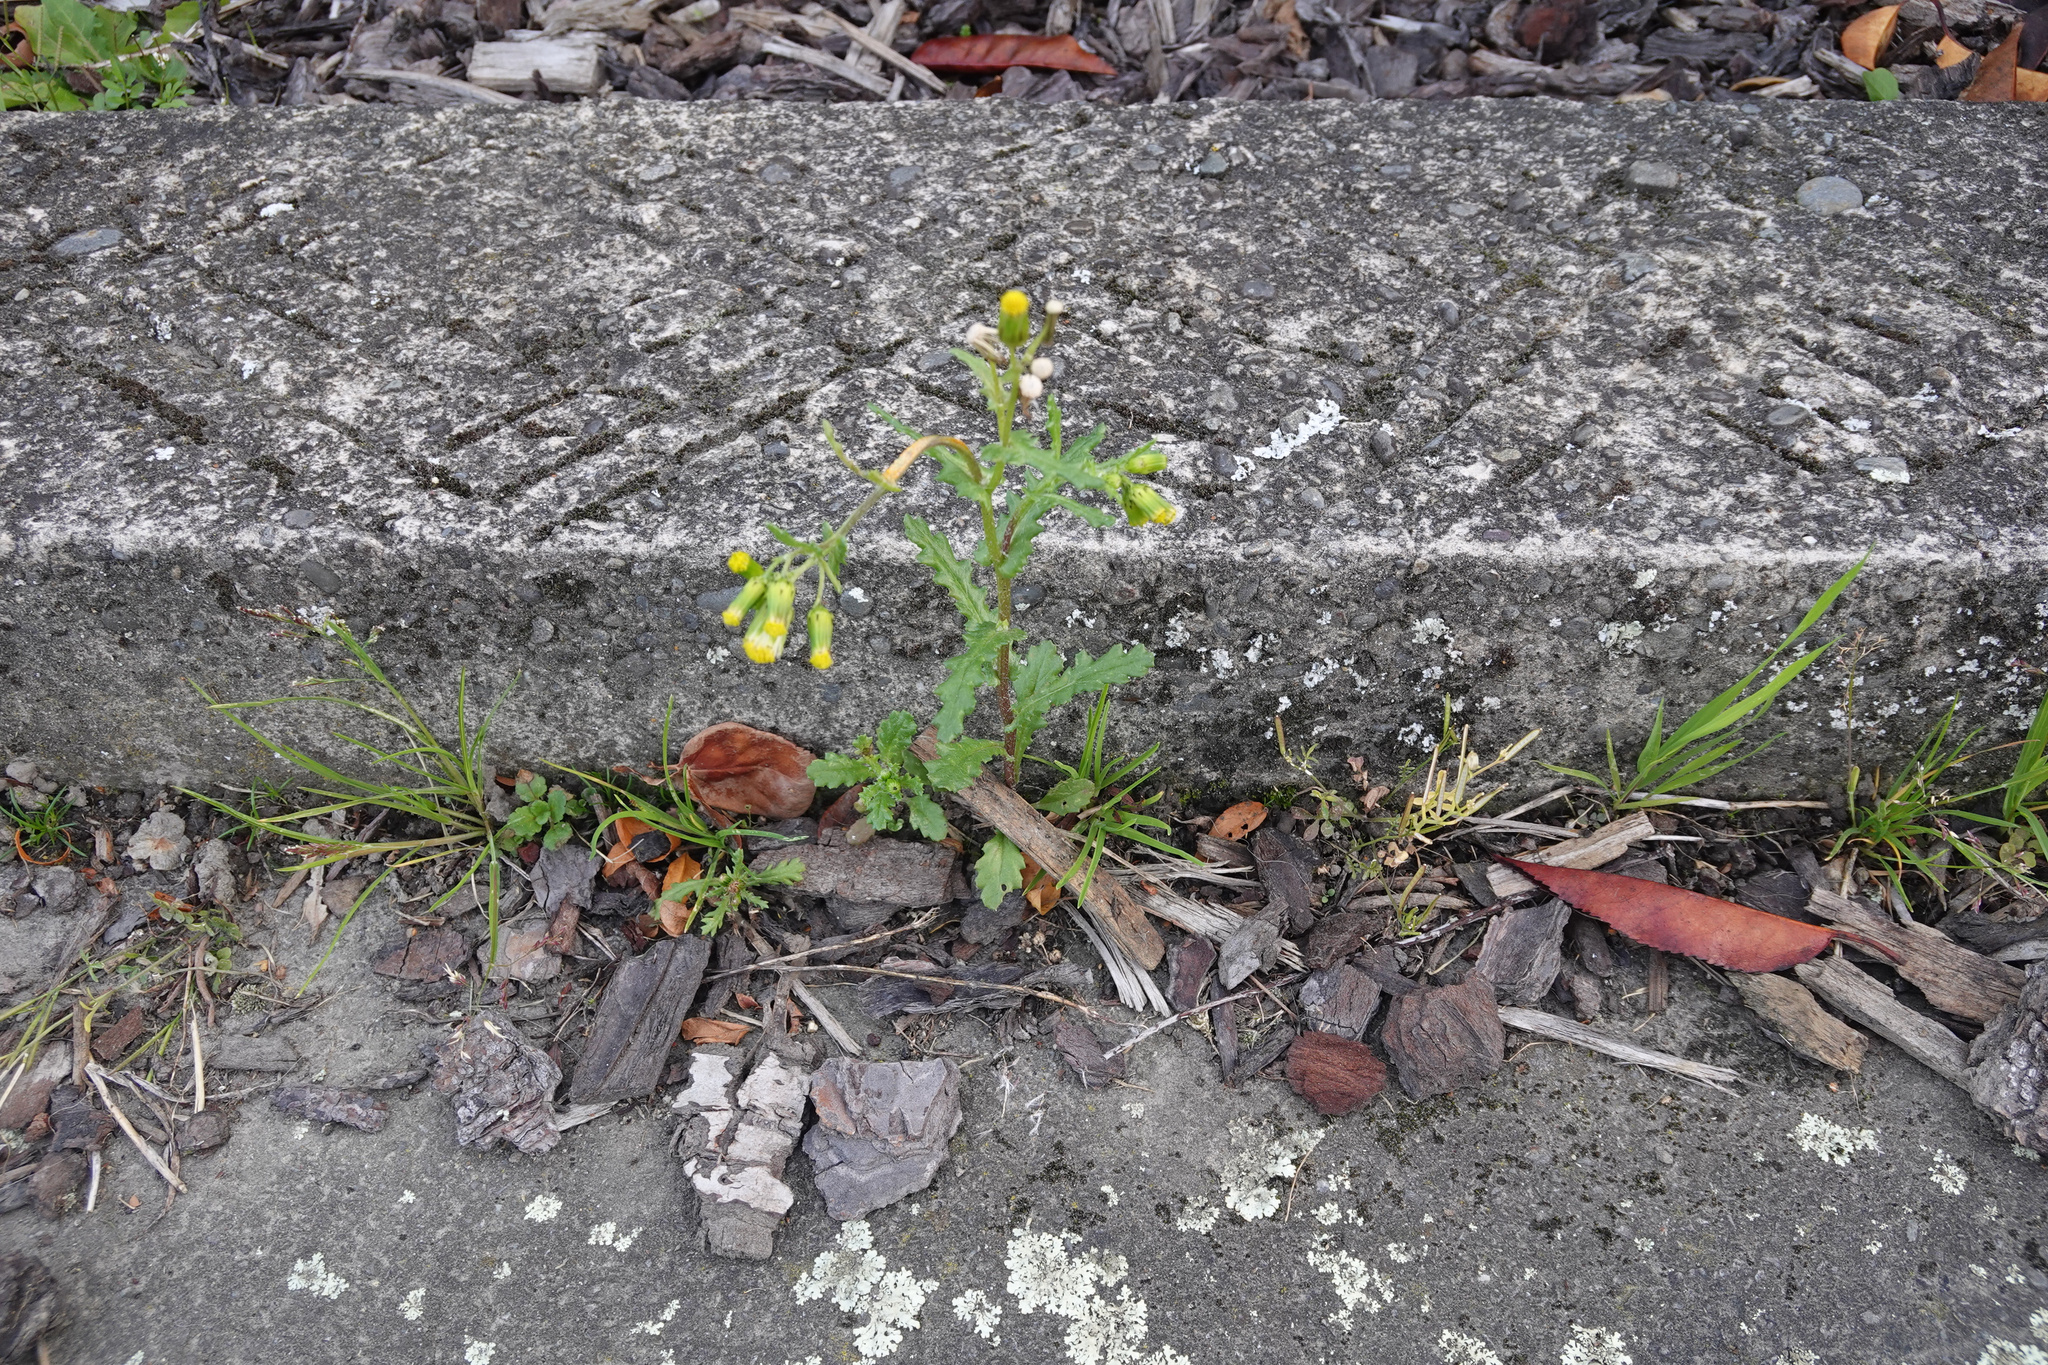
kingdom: Plantae
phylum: Tracheophyta
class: Magnoliopsida
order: Asterales
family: Asteraceae
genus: Senecio
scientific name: Senecio vulgaris
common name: Old-man-in-the-spring
